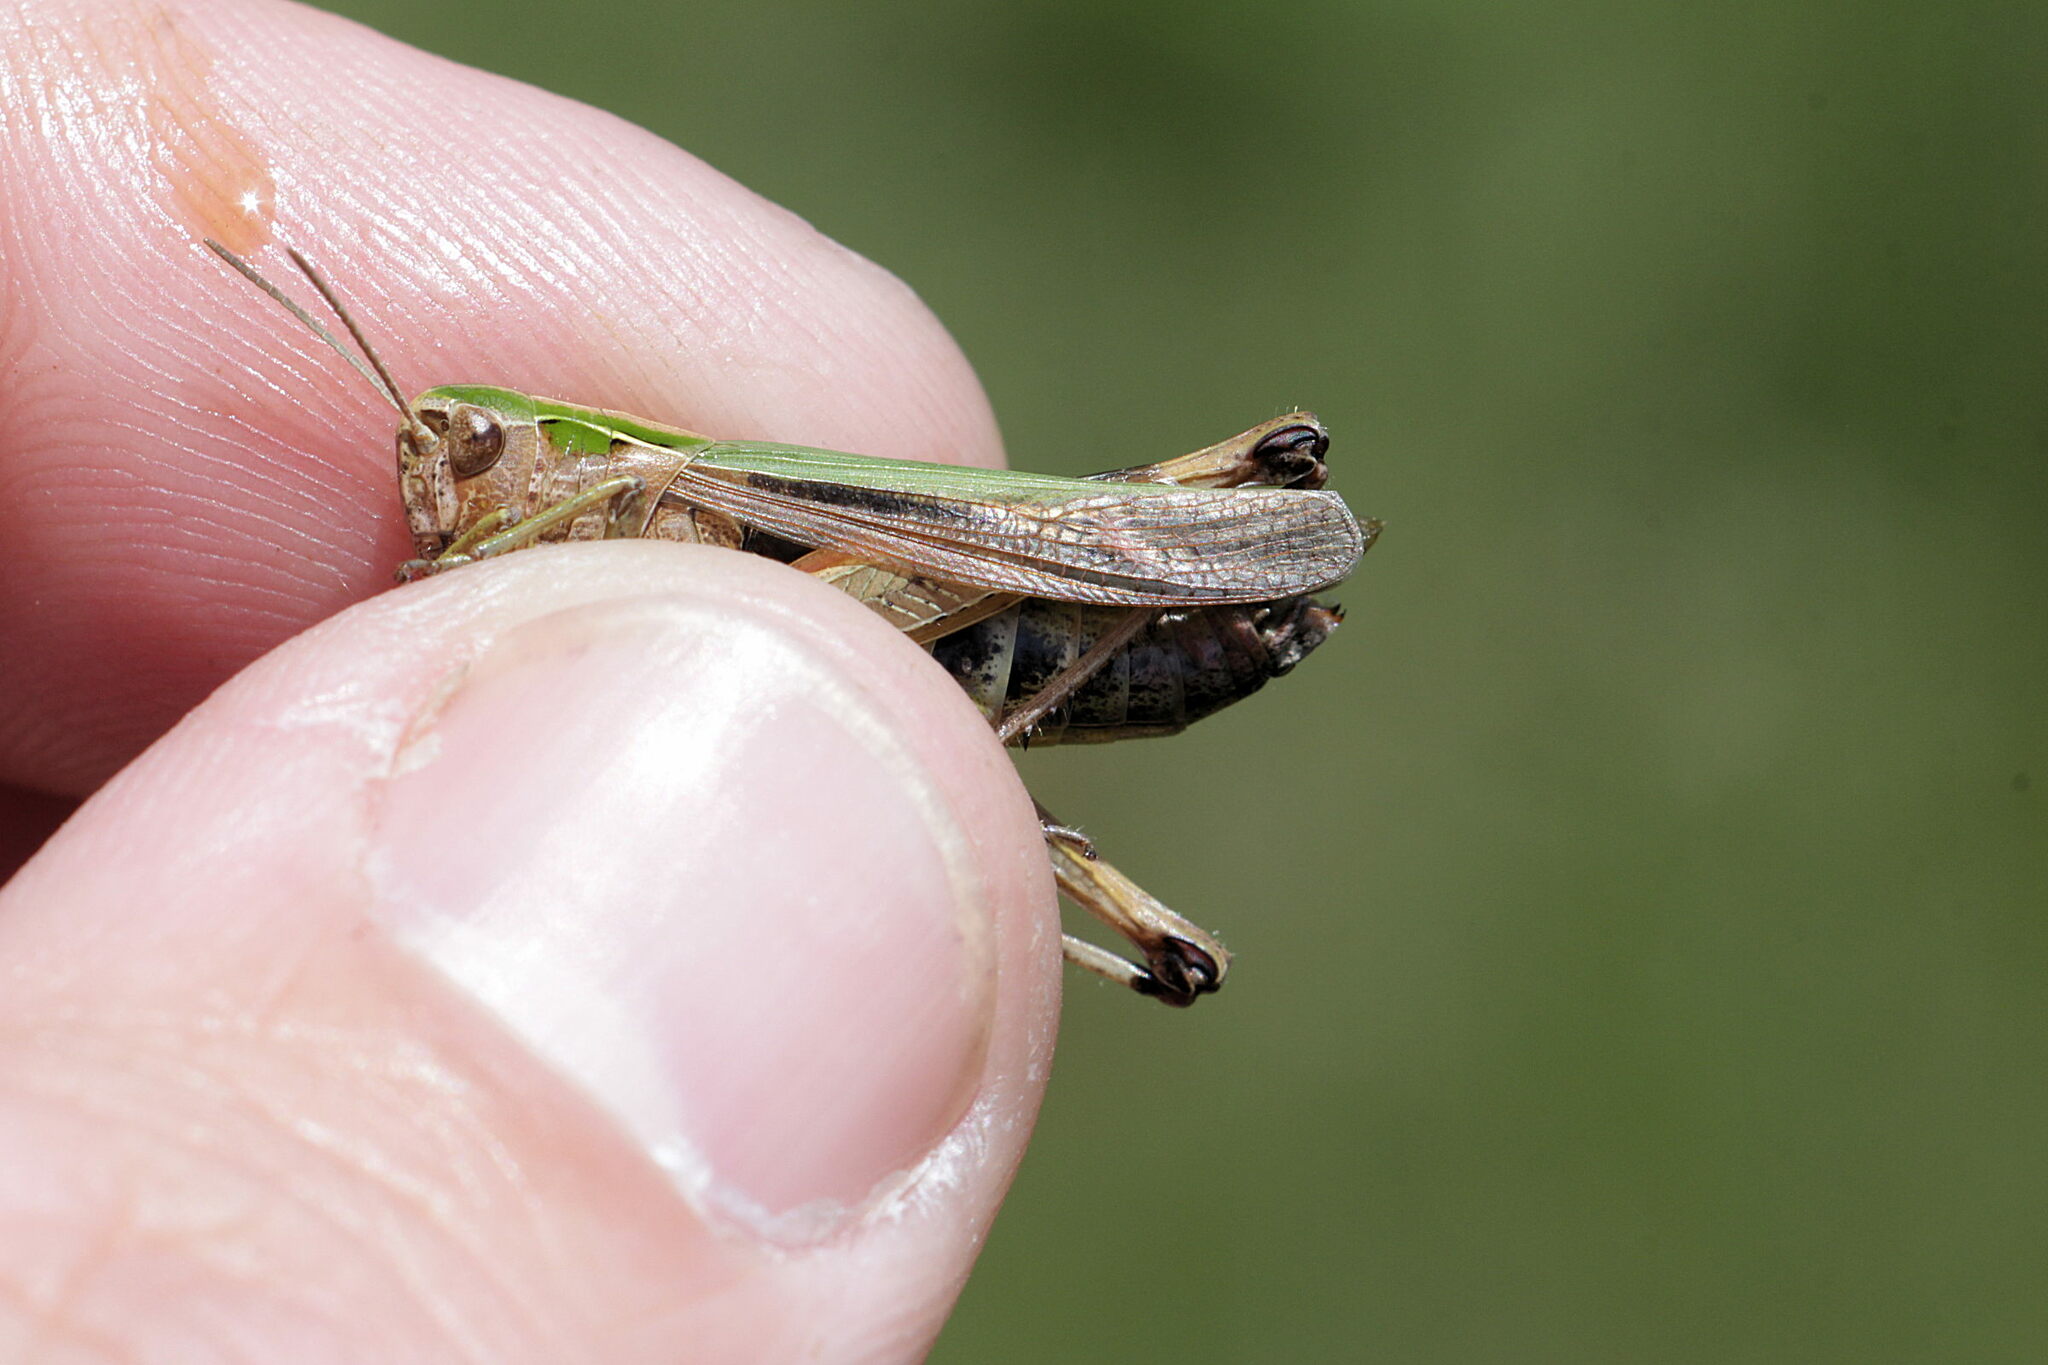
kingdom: Animalia
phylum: Arthropoda
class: Insecta
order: Orthoptera
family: Acrididae
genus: Omocestus
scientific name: Omocestus viridulus
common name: Common green grasshopper
